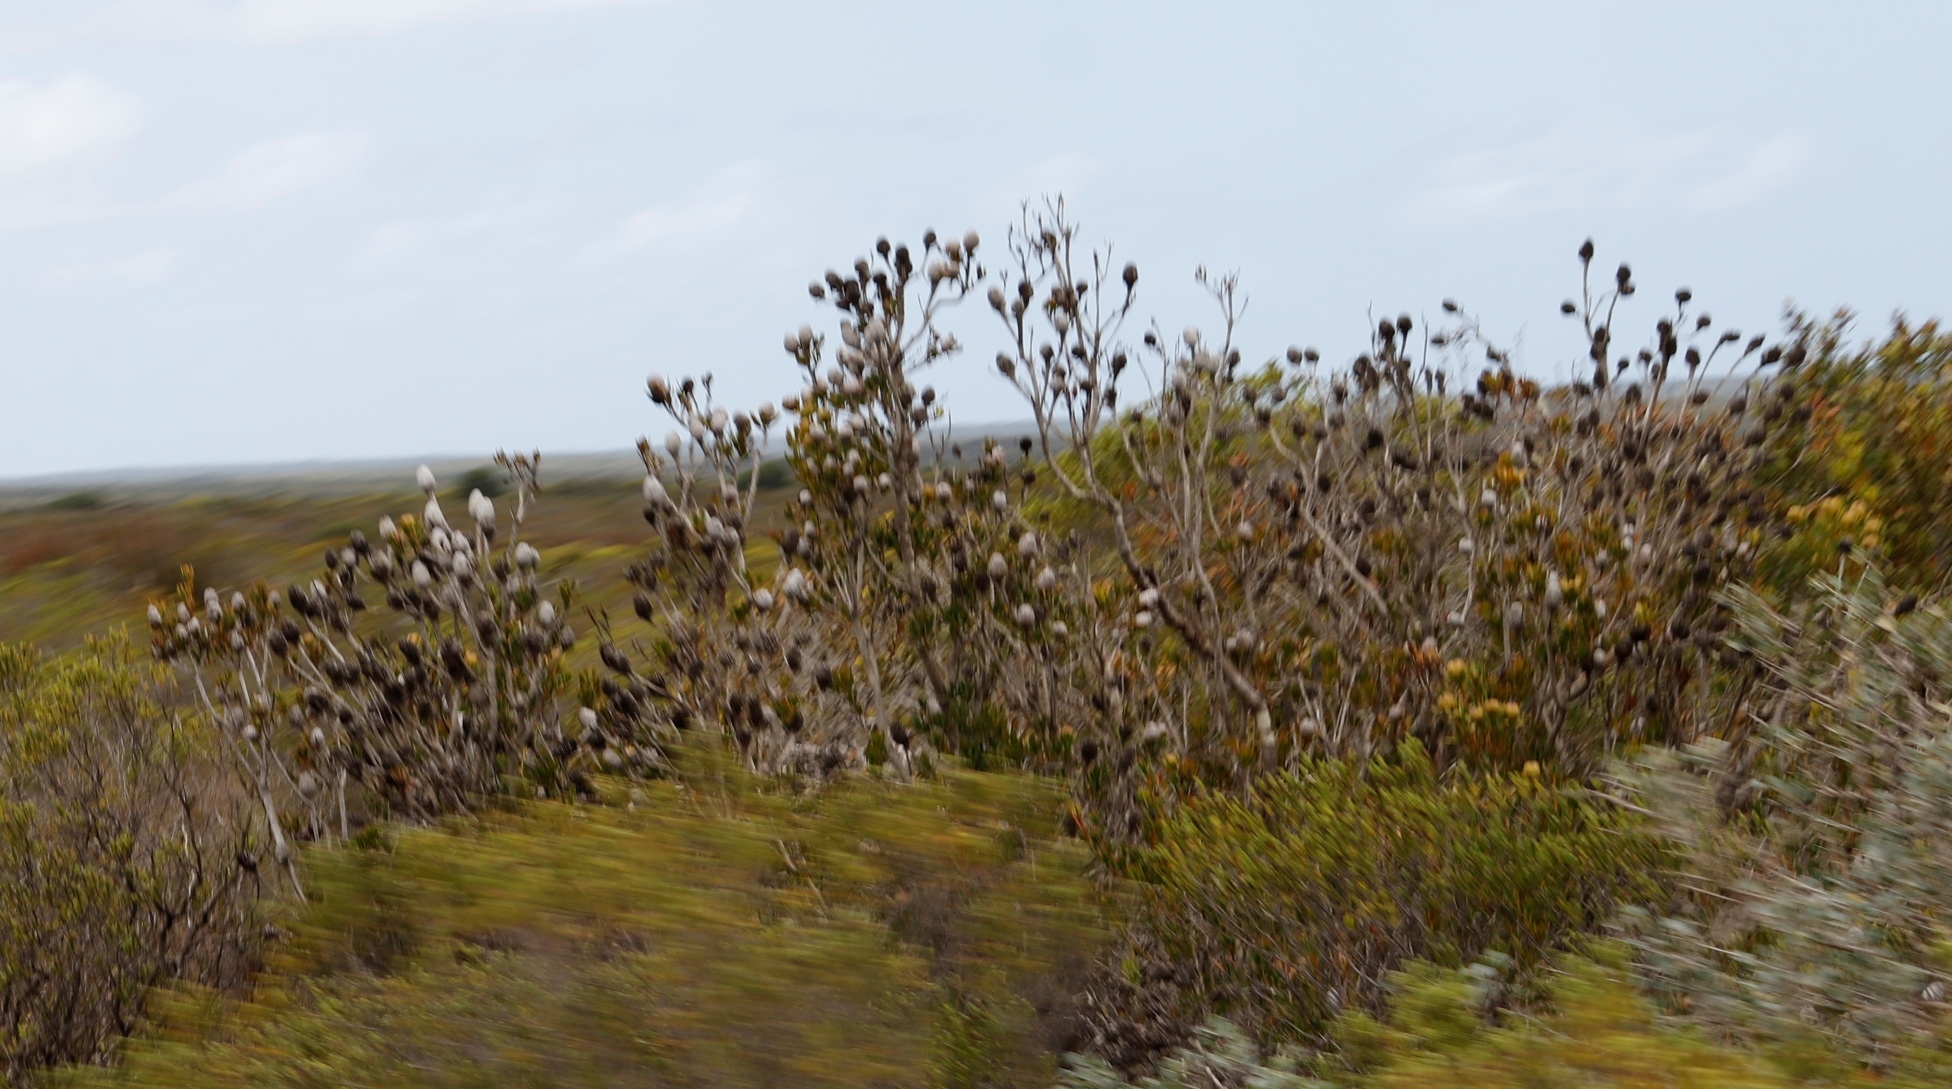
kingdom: Plantae
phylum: Tracheophyta
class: Magnoliopsida
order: Proteales
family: Proteaceae
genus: Leucadendron
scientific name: Leucadendron muirii
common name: Silver-ball conebush
